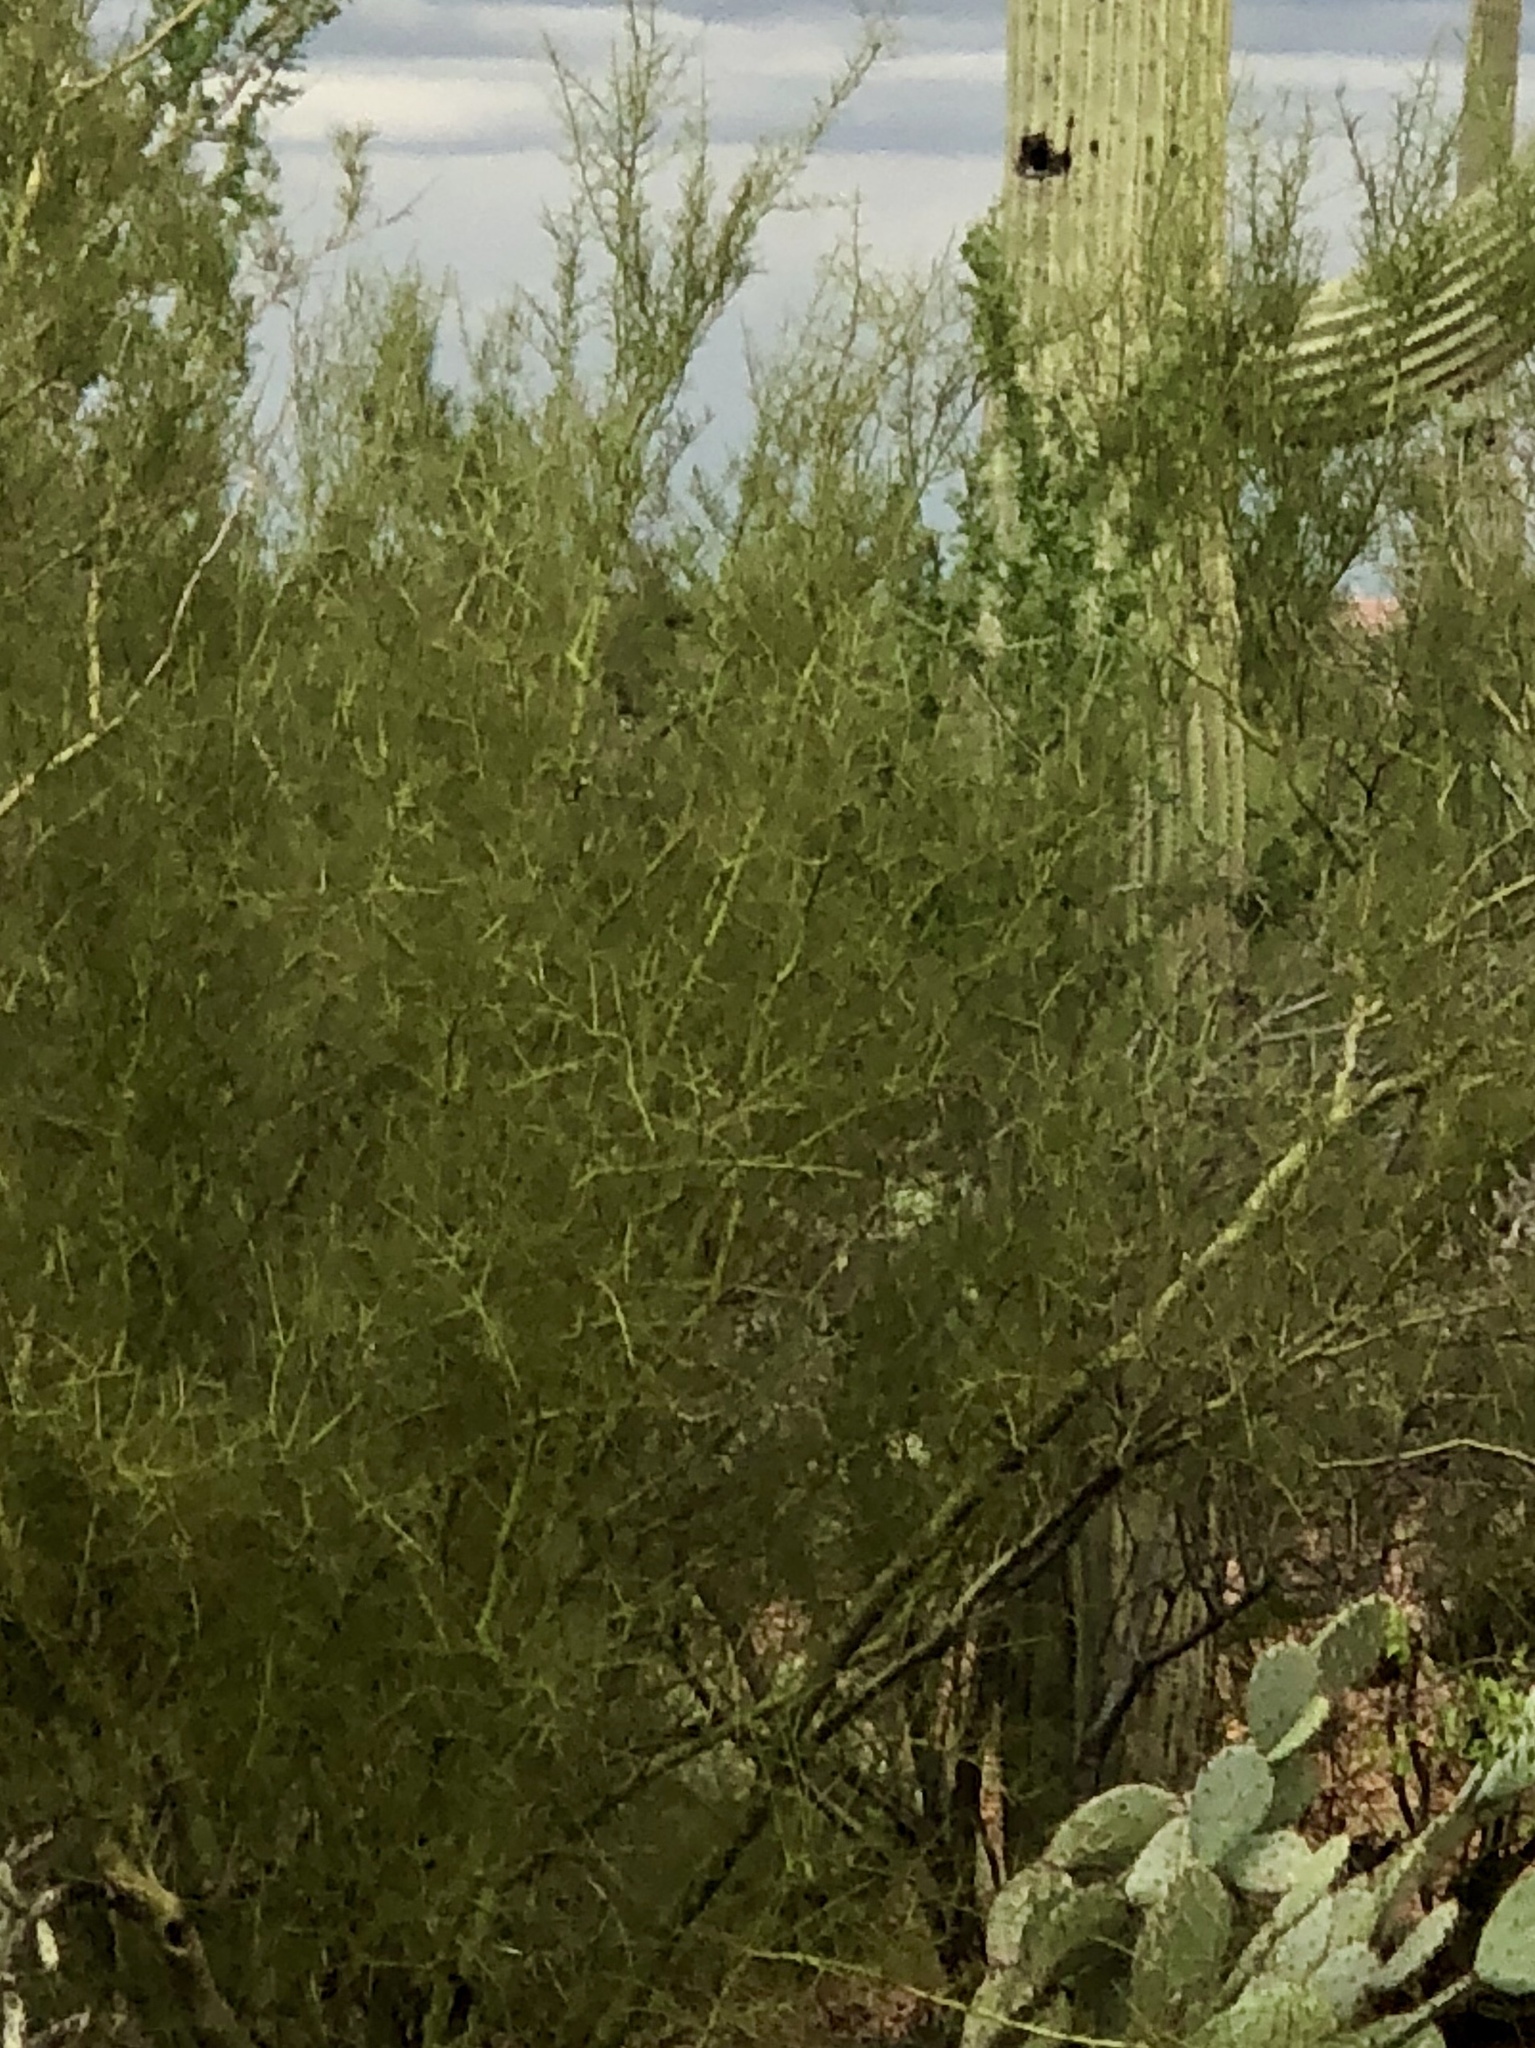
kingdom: Plantae
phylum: Tracheophyta
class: Magnoliopsida
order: Fabales
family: Fabaceae
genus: Parkinsonia
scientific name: Parkinsonia microphylla
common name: Yellow paloverde
